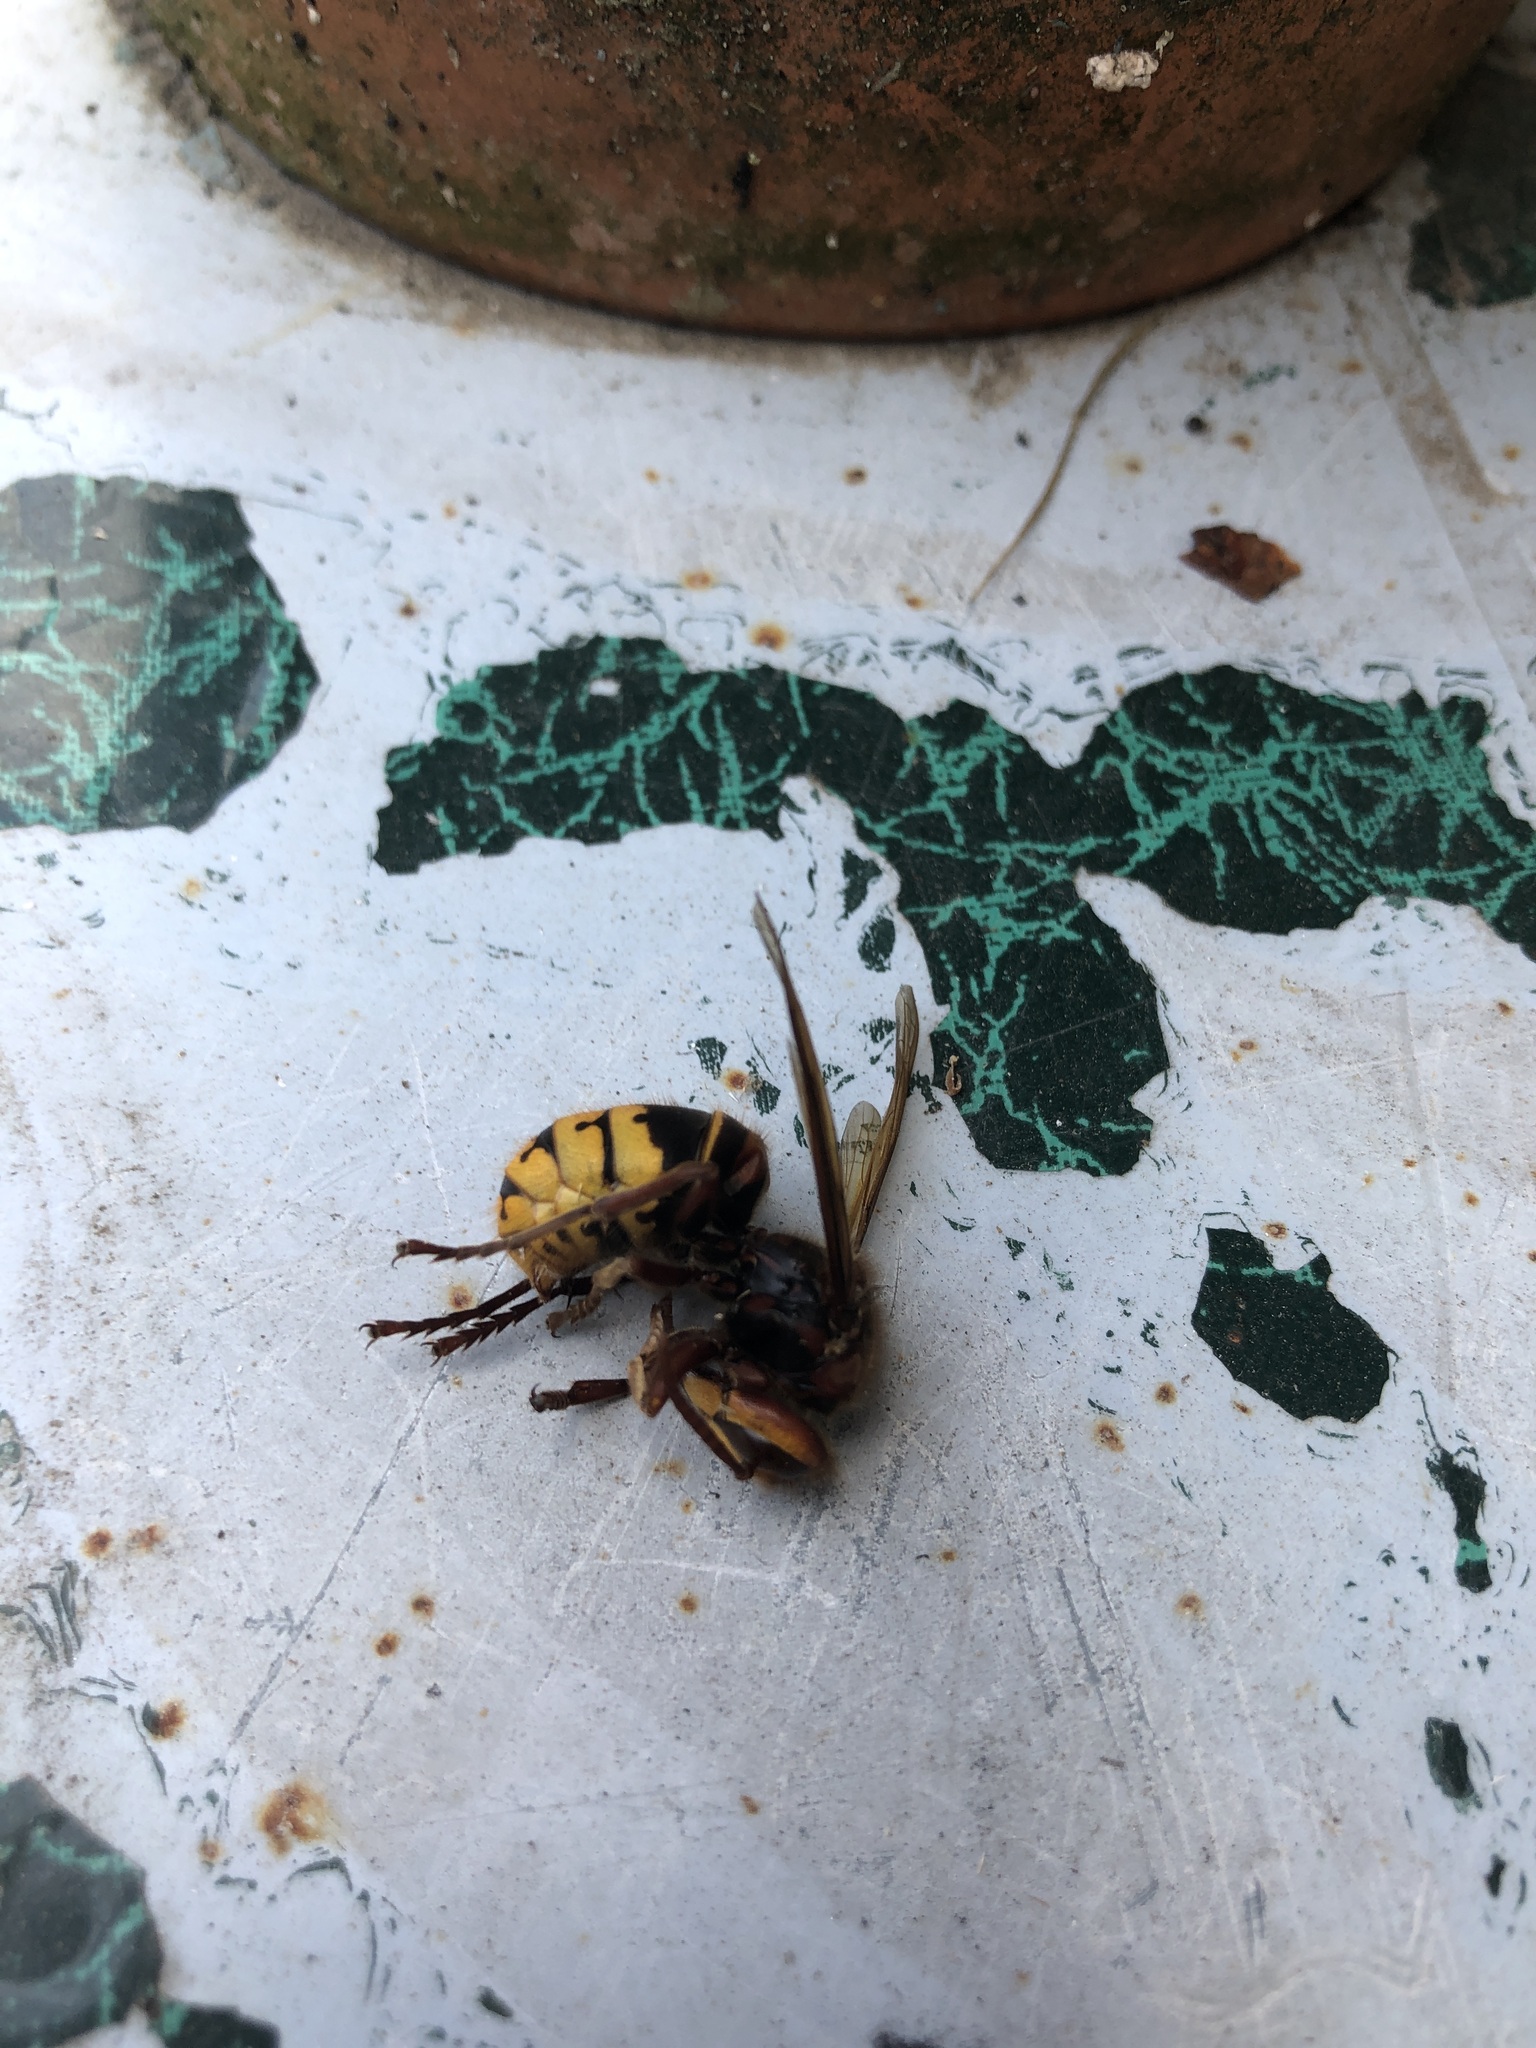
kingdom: Animalia
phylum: Arthropoda
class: Insecta
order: Hymenoptera
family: Vespidae
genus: Vespa
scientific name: Vespa crabro
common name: Hornet
